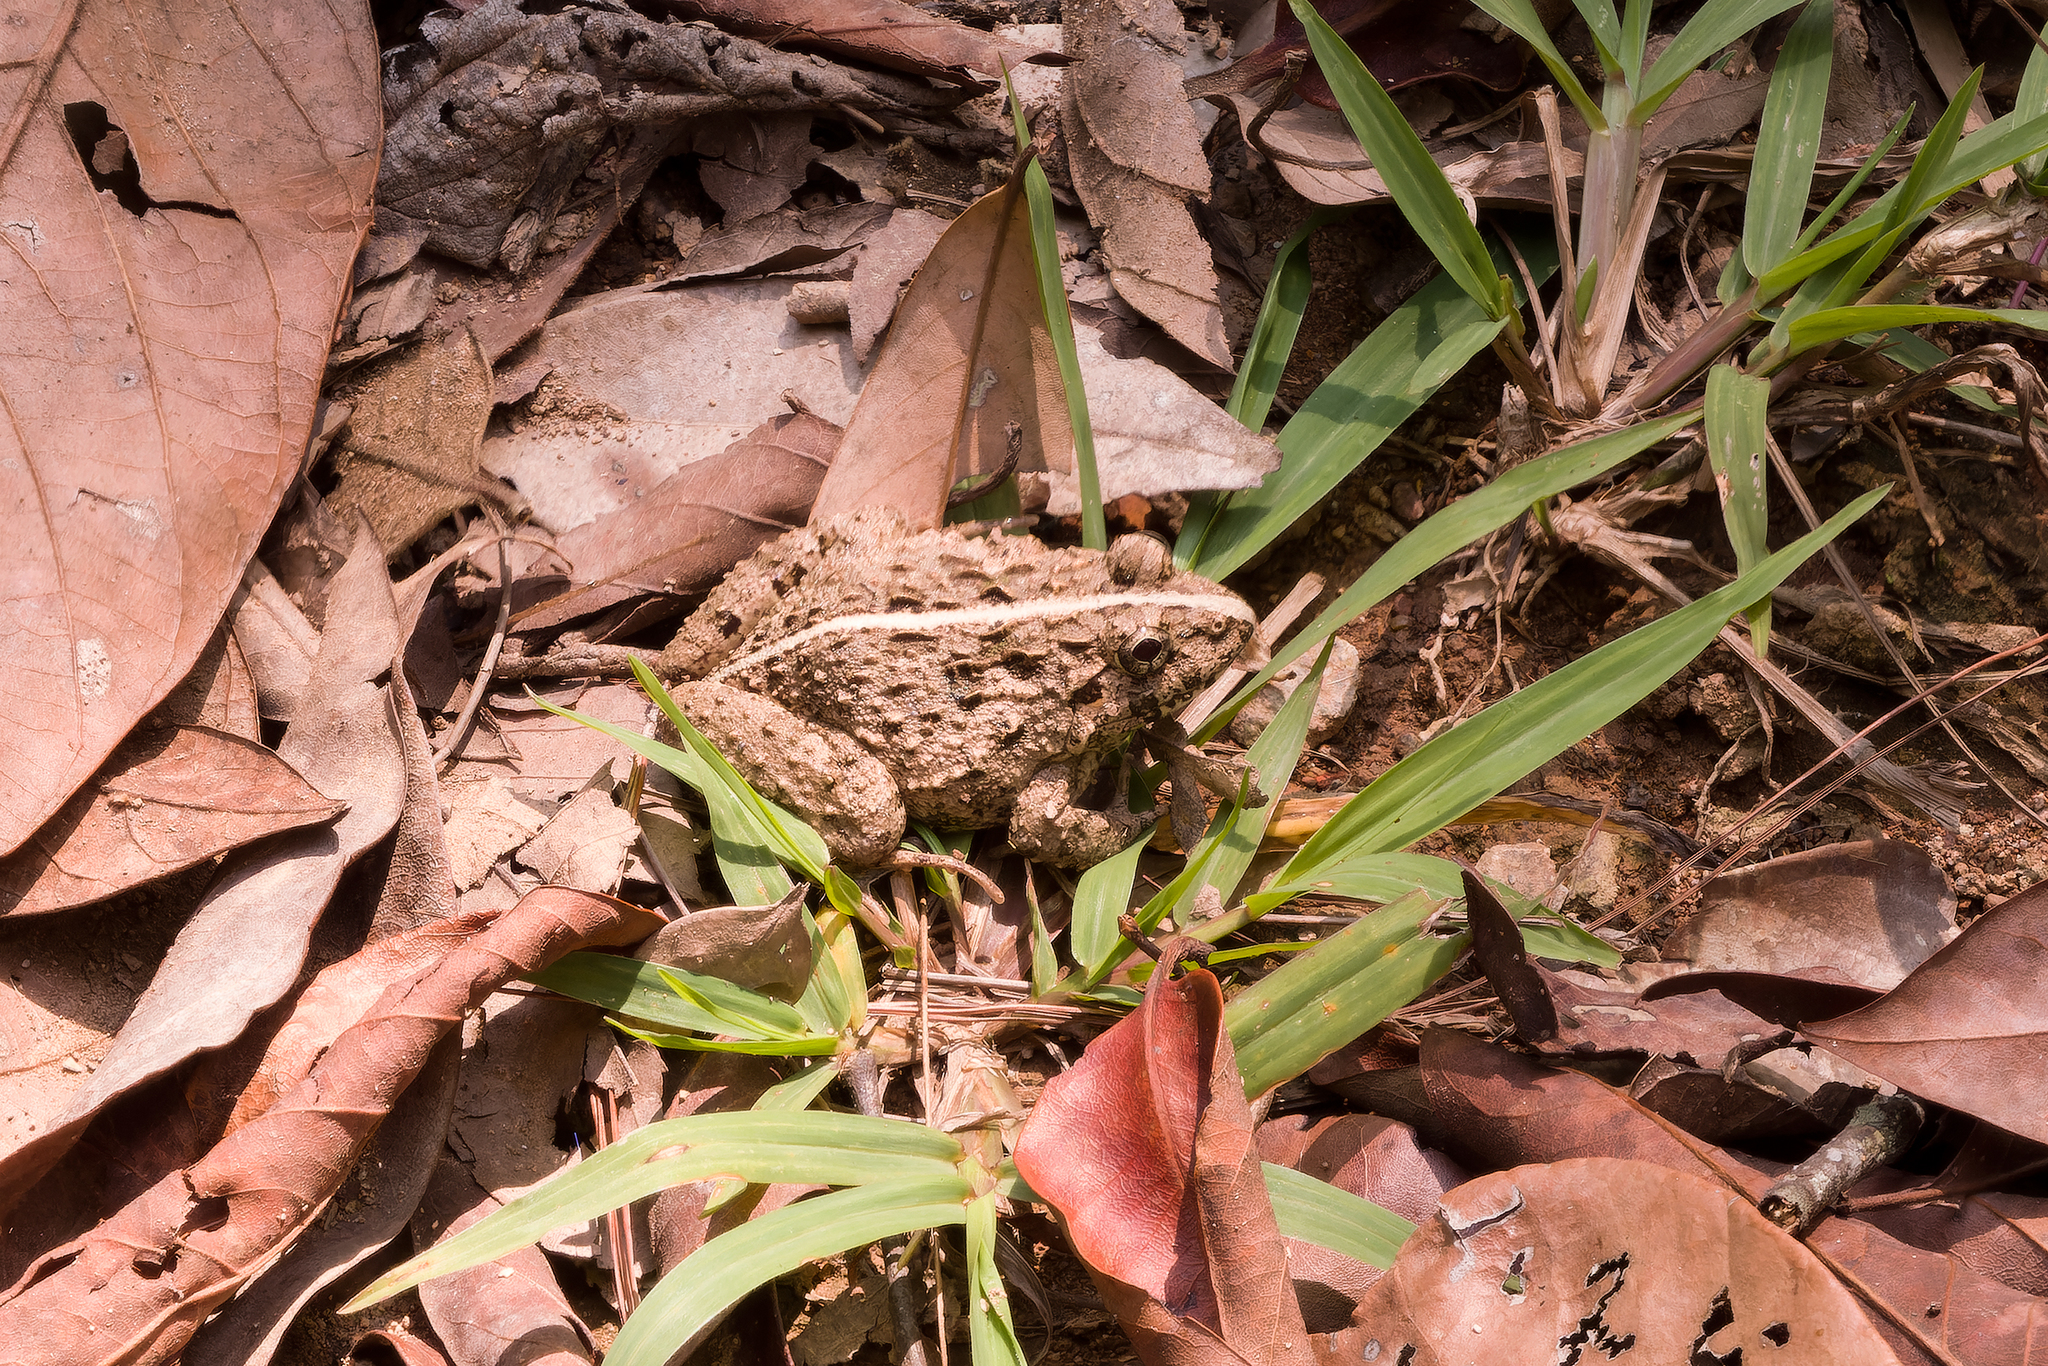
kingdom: Animalia
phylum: Chordata
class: Amphibia
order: Anura
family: Dicroglossidae
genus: Fejervarya
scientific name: Fejervarya limnocharis
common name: Asian grass frog/common pond frog/field frog/grass frog/indian rice frog
